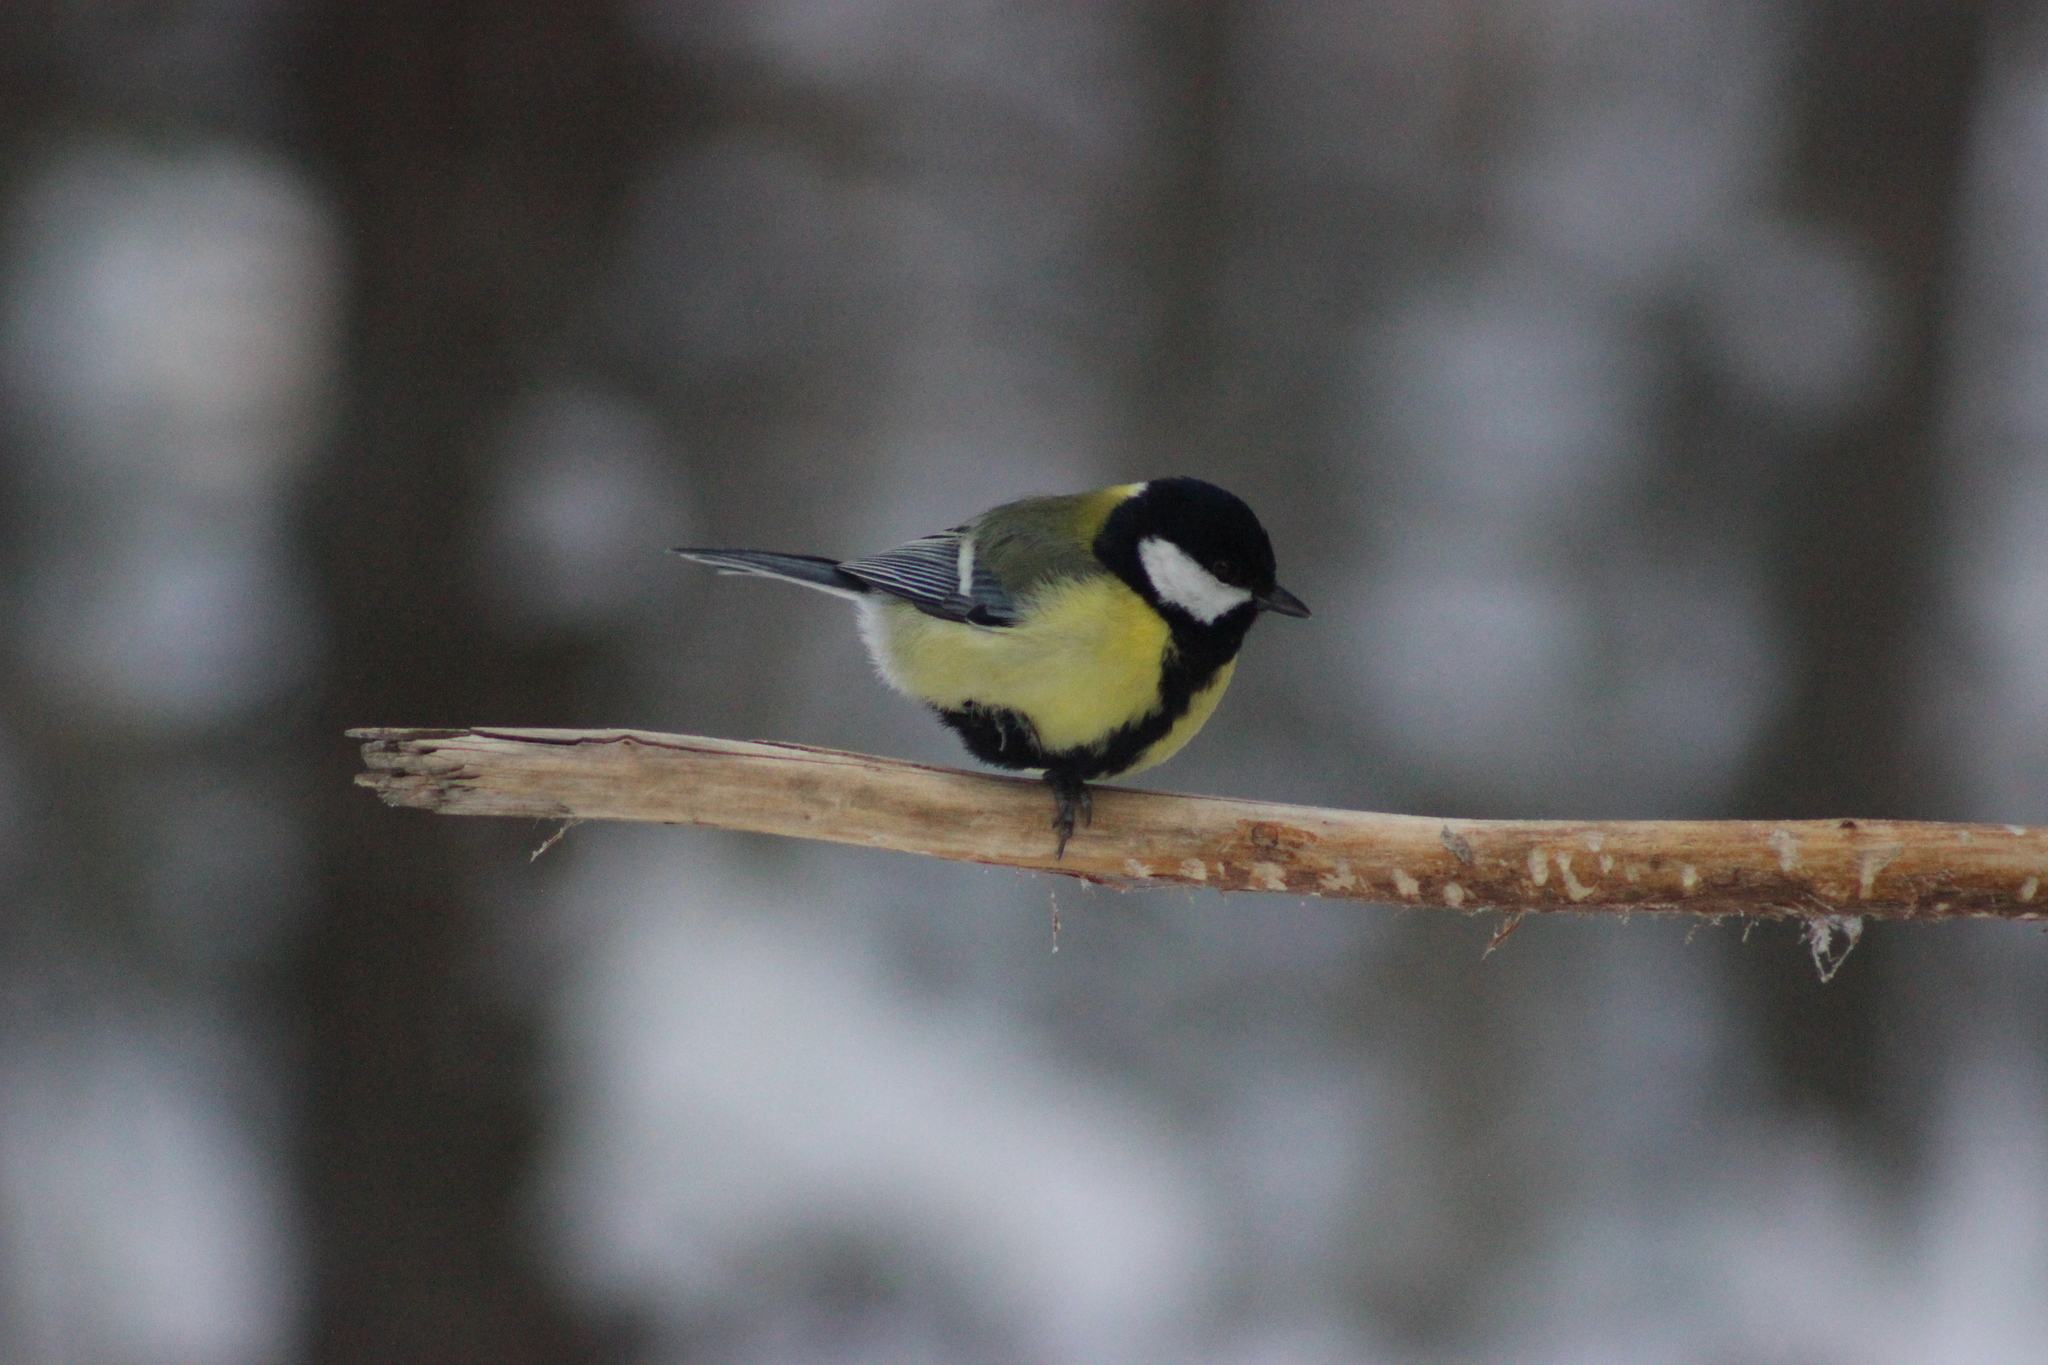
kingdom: Animalia
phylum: Chordata
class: Aves
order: Passeriformes
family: Paridae
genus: Parus
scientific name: Parus major
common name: Great tit
